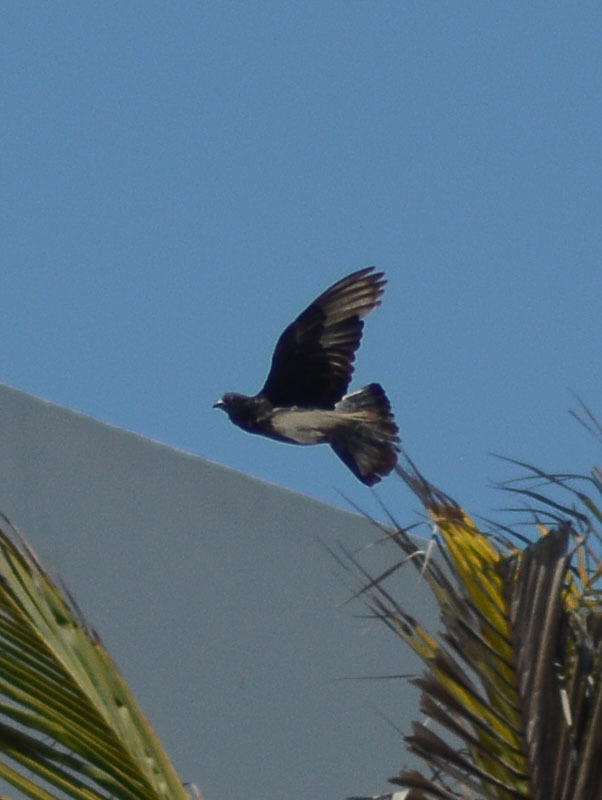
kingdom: Animalia
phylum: Chordata
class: Aves
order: Columbiformes
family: Columbidae
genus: Columba
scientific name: Columba livia
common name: Rock pigeon
